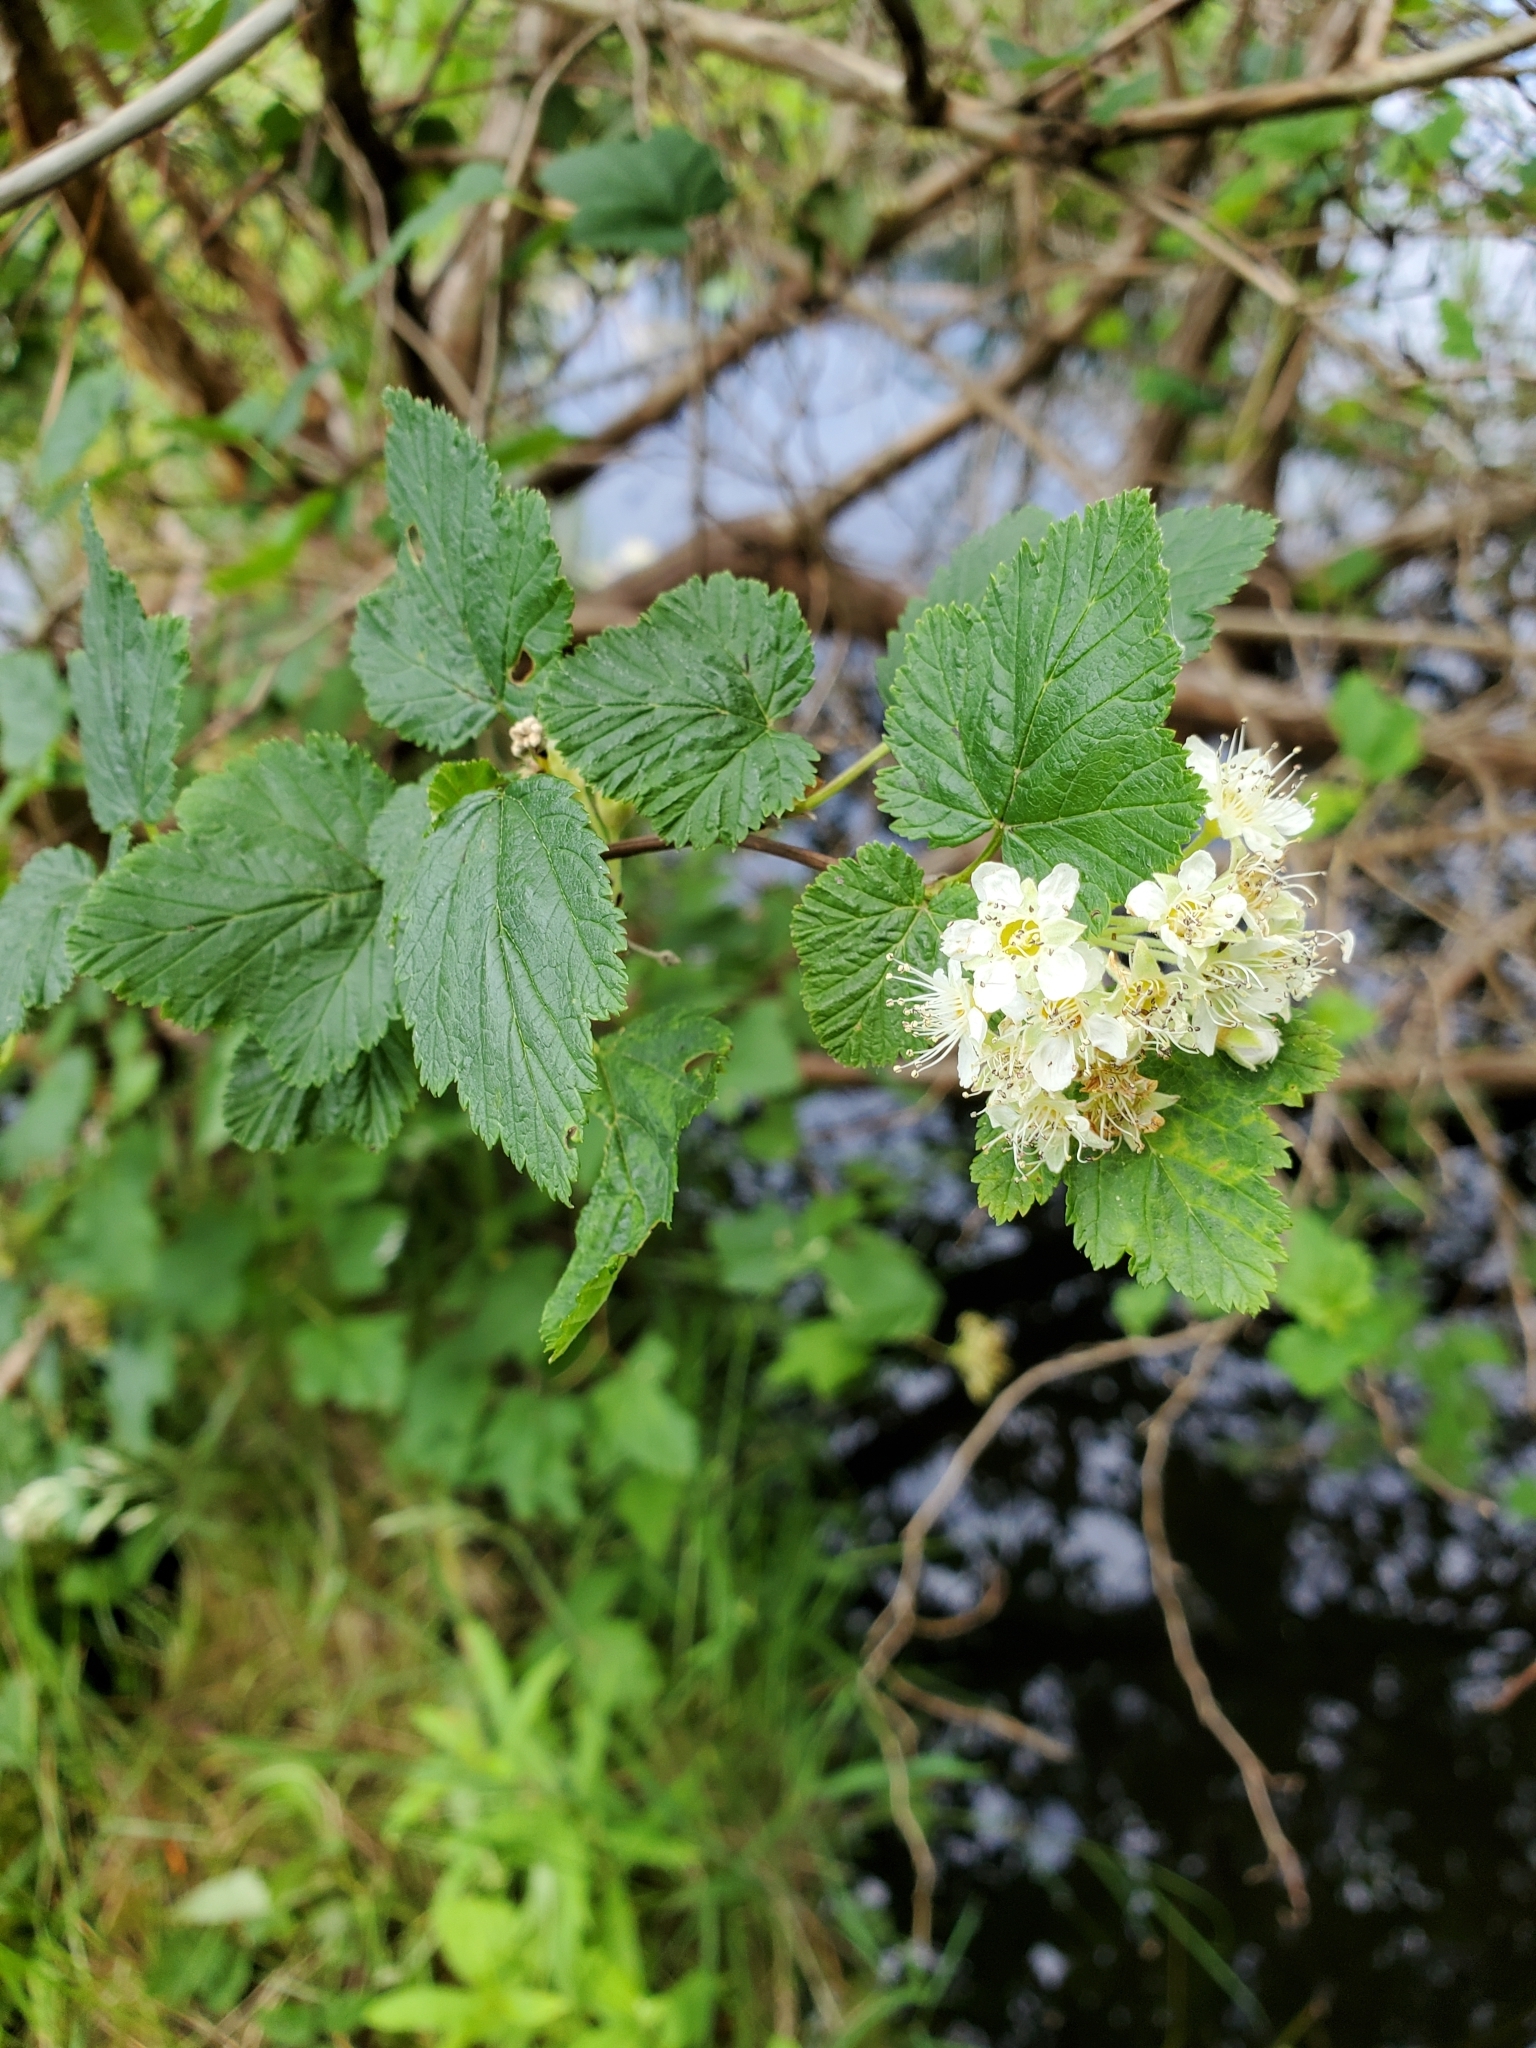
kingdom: Plantae
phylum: Tracheophyta
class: Magnoliopsida
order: Rosales
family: Rosaceae
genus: Physocarpus
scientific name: Physocarpus capitatus
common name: Pacific ninebark
